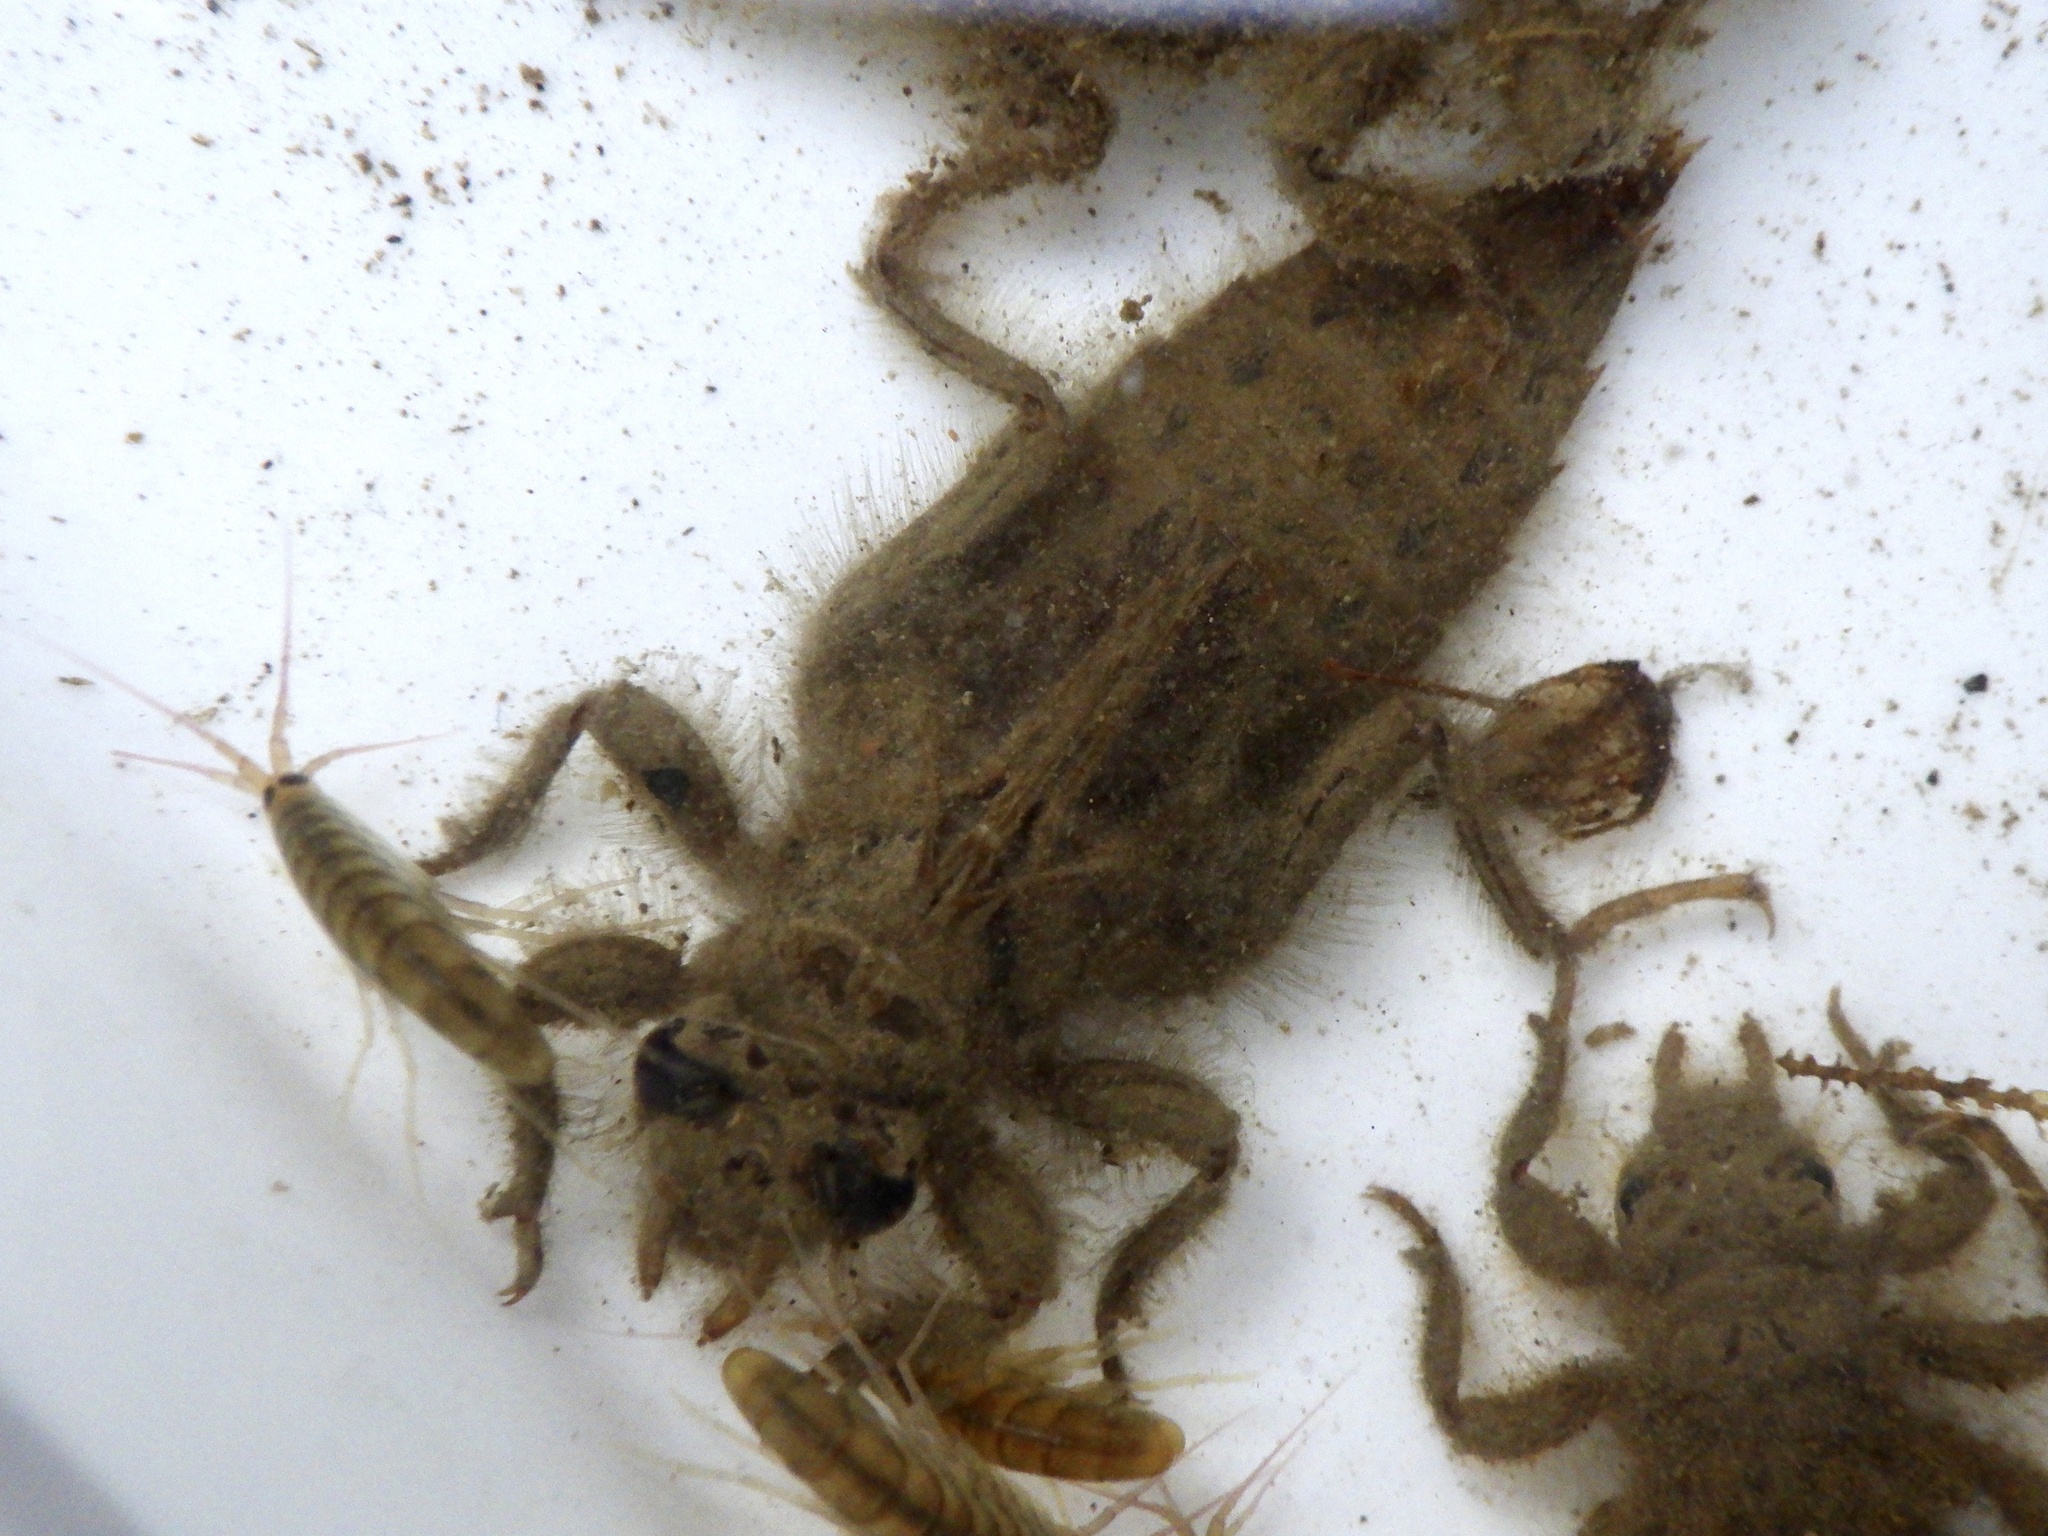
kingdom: Animalia
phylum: Arthropoda
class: Insecta
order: Odonata
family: Gomphidae
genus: Asiagomphus
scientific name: Asiagomphus melaenops
